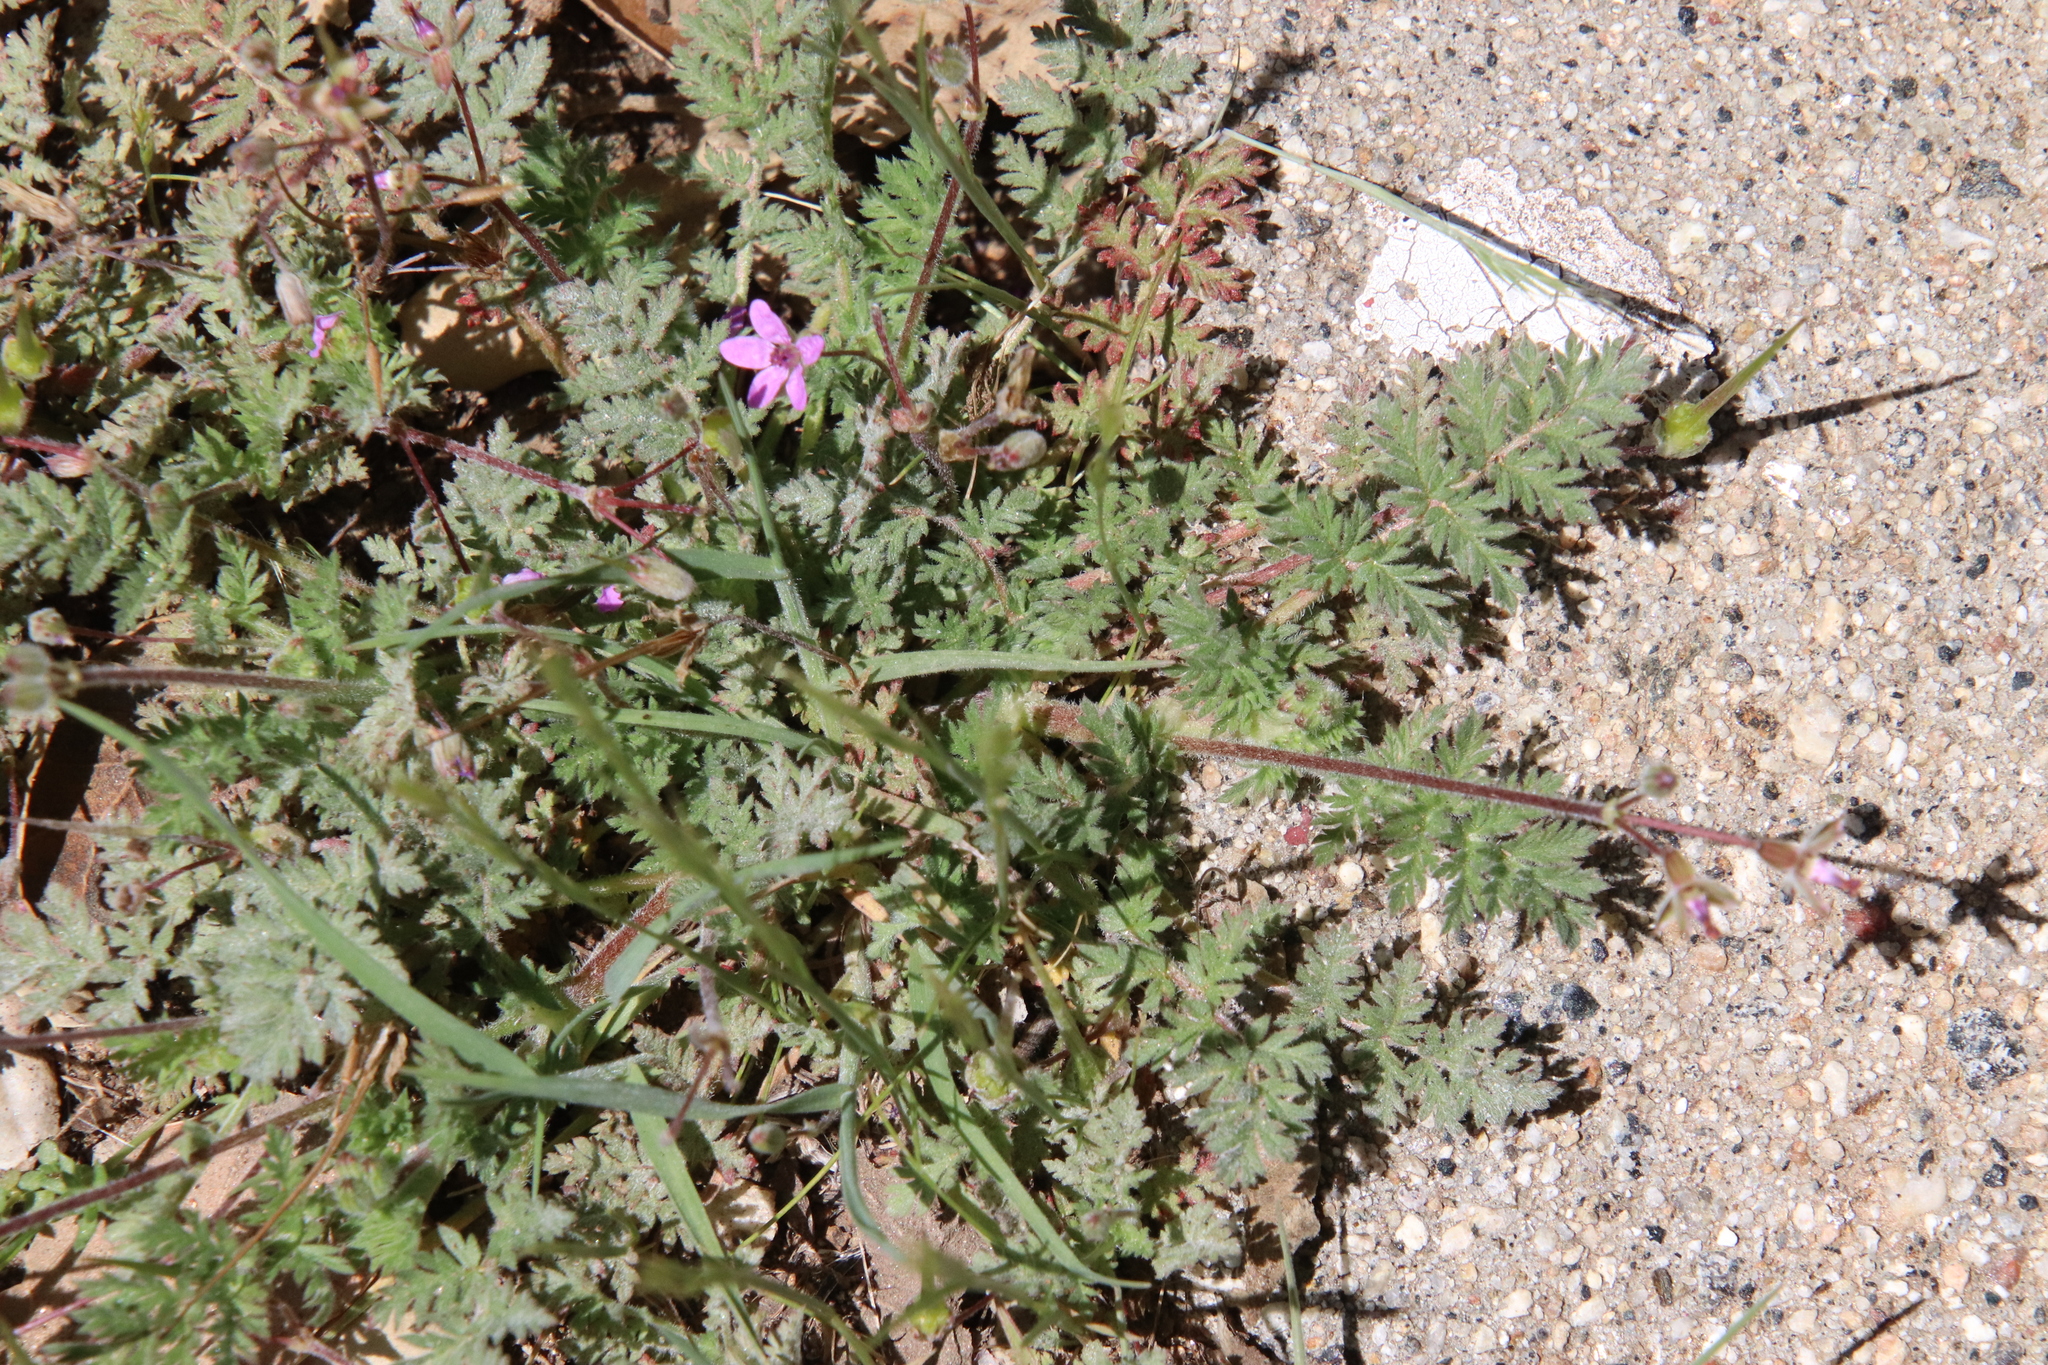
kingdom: Plantae
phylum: Tracheophyta
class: Magnoliopsida
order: Geraniales
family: Geraniaceae
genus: Erodium
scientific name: Erodium cicutarium
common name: Common stork's-bill
